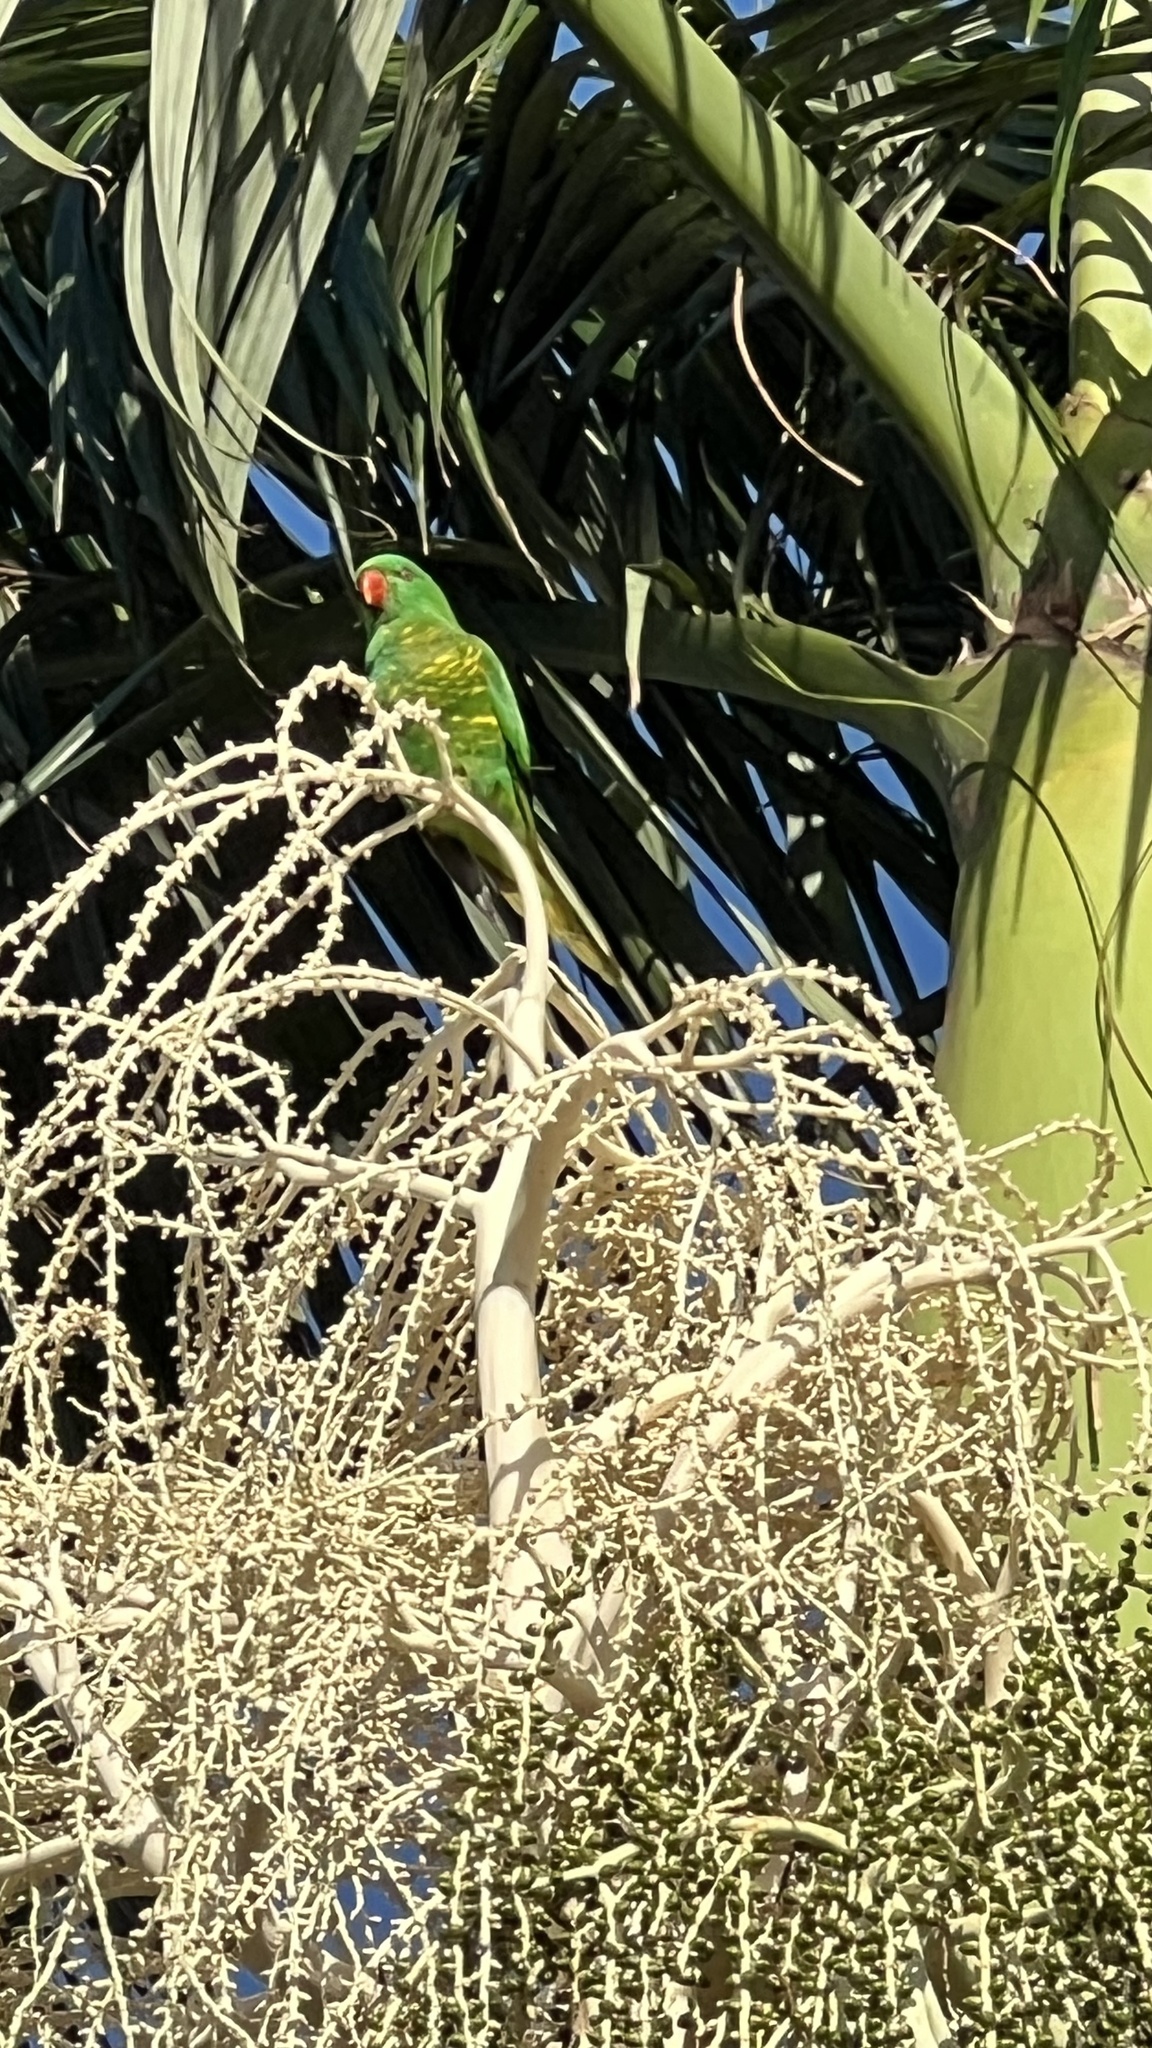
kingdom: Animalia
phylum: Chordata
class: Aves
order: Psittaciformes
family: Psittacidae
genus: Trichoglossus
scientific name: Trichoglossus chlorolepidotus
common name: Scaly-breasted lorikeet
